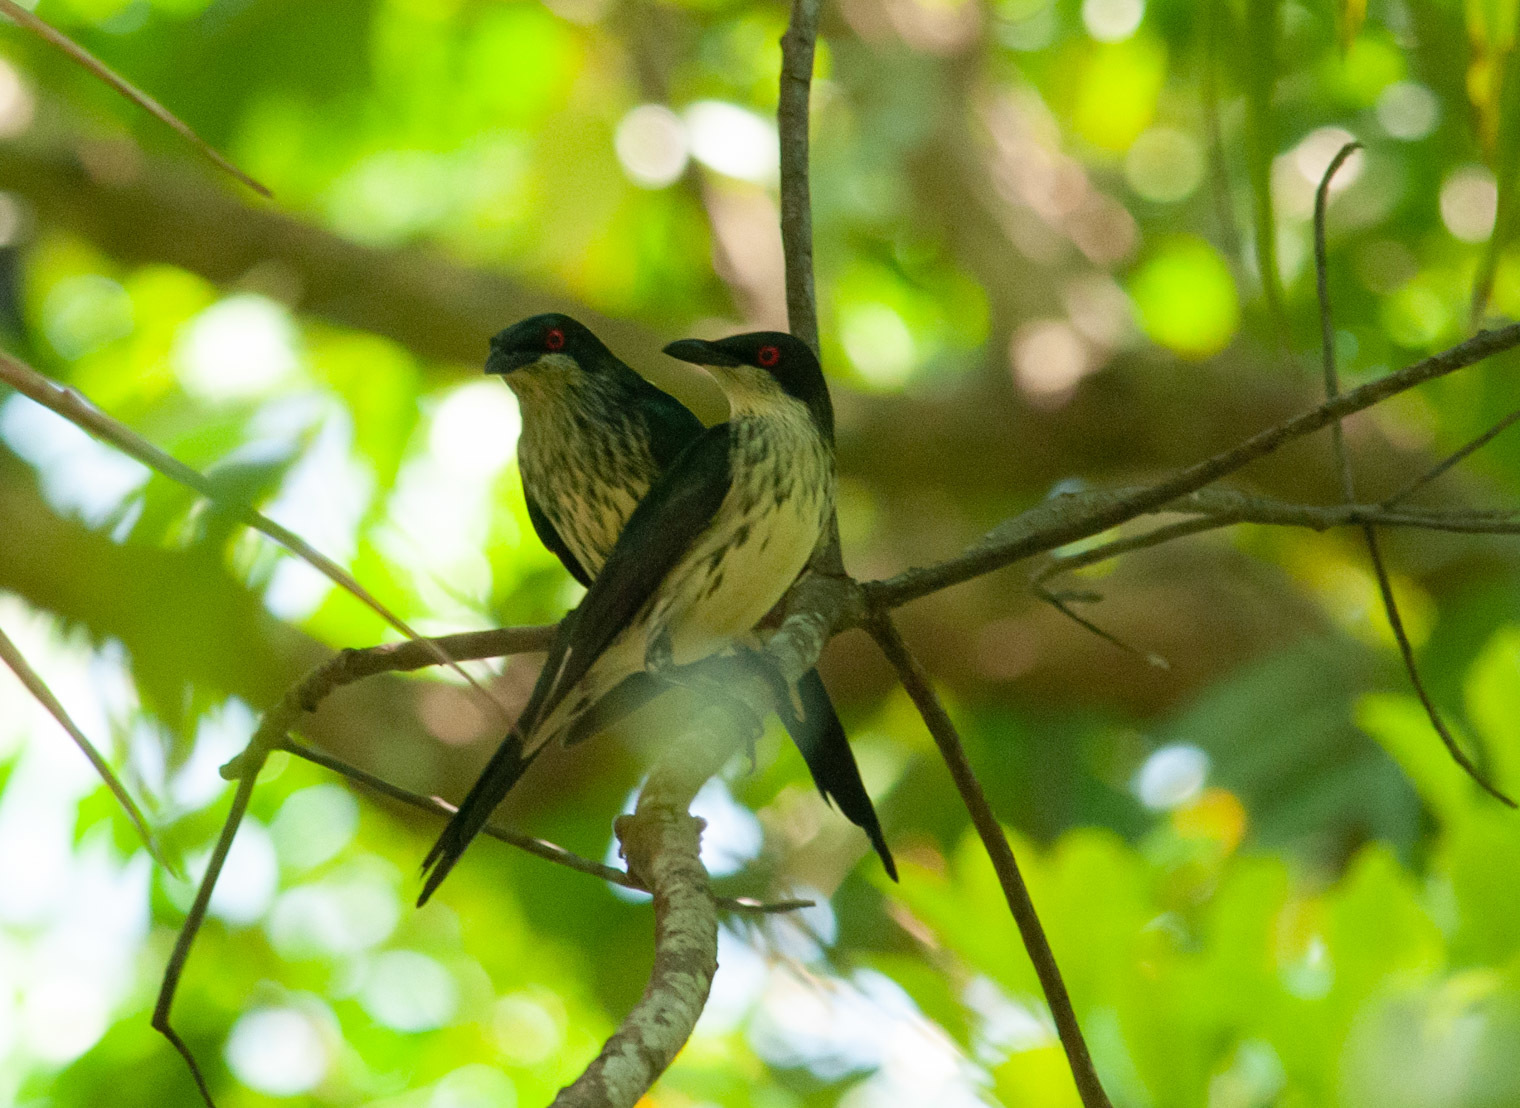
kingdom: Animalia
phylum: Chordata
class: Aves
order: Passeriformes
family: Sturnidae
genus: Aplonis
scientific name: Aplonis metallica
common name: Metallic starling
